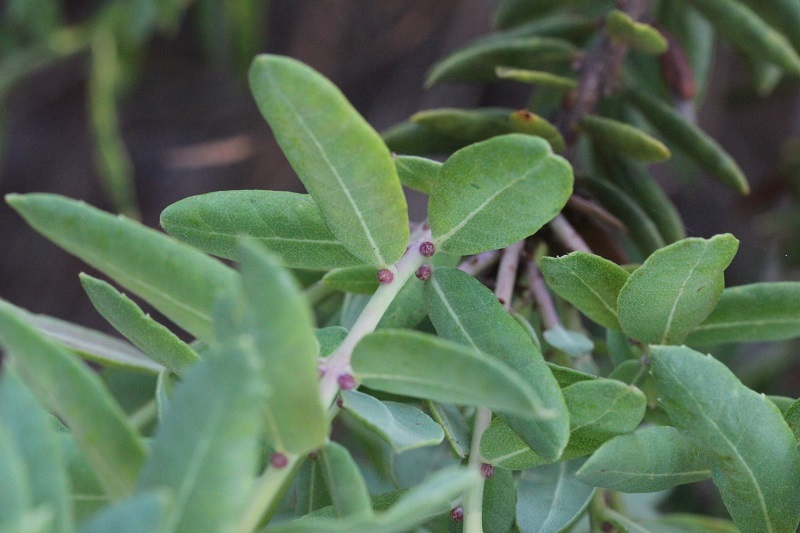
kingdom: Plantae
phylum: Tracheophyta
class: Magnoliopsida
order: Fagales
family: Myricaceae
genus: Morella
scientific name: Morella humilis
